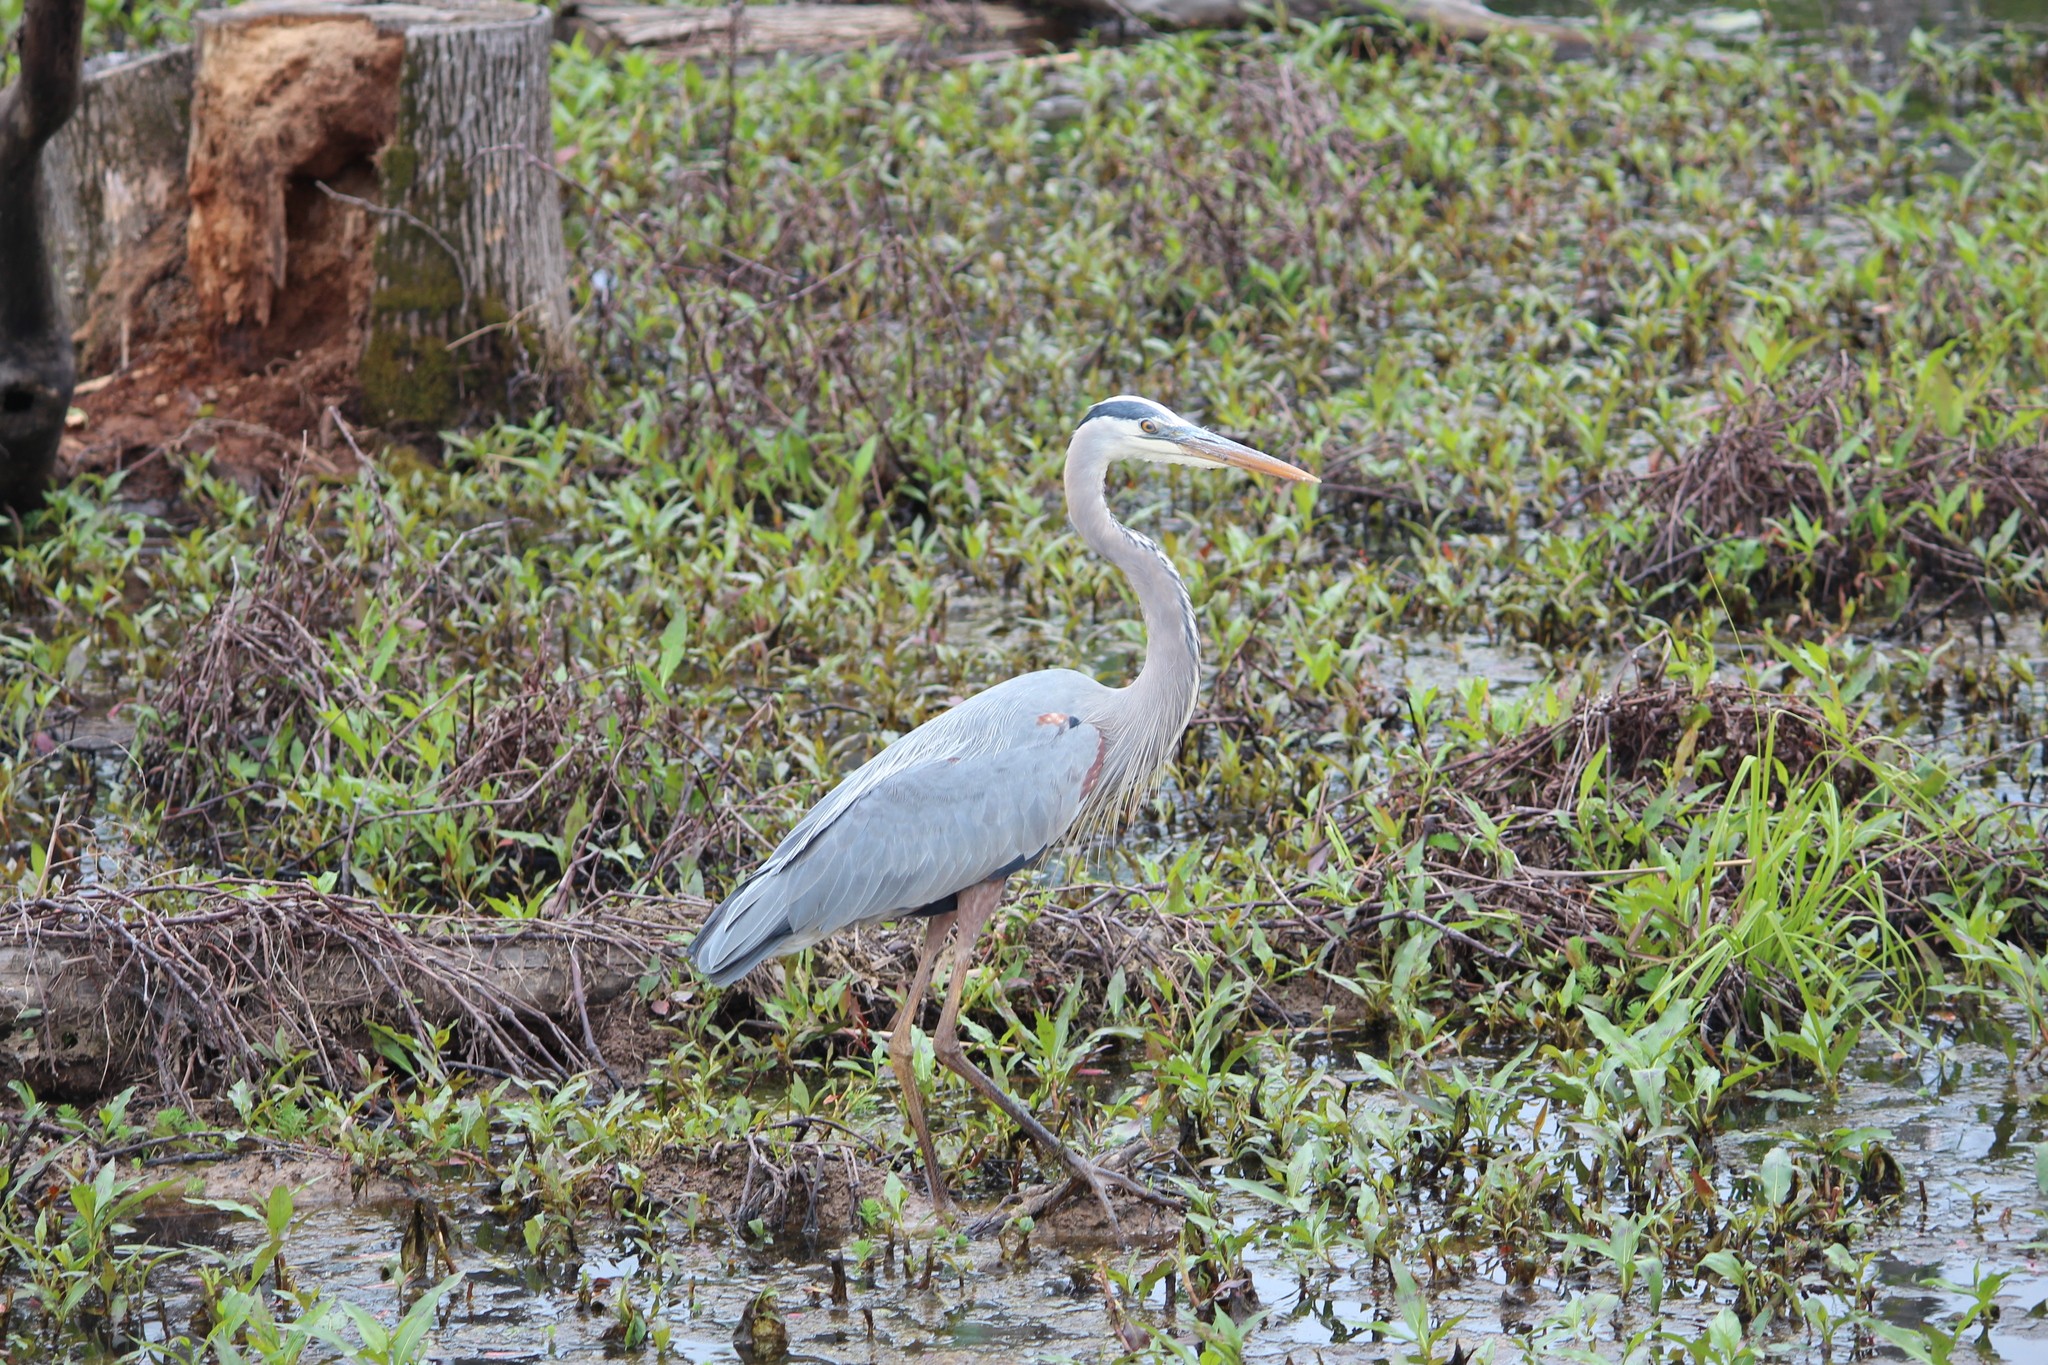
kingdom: Animalia
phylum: Chordata
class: Aves
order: Pelecaniformes
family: Ardeidae
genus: Ardea
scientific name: Ardea herodias
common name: Great blue heron
